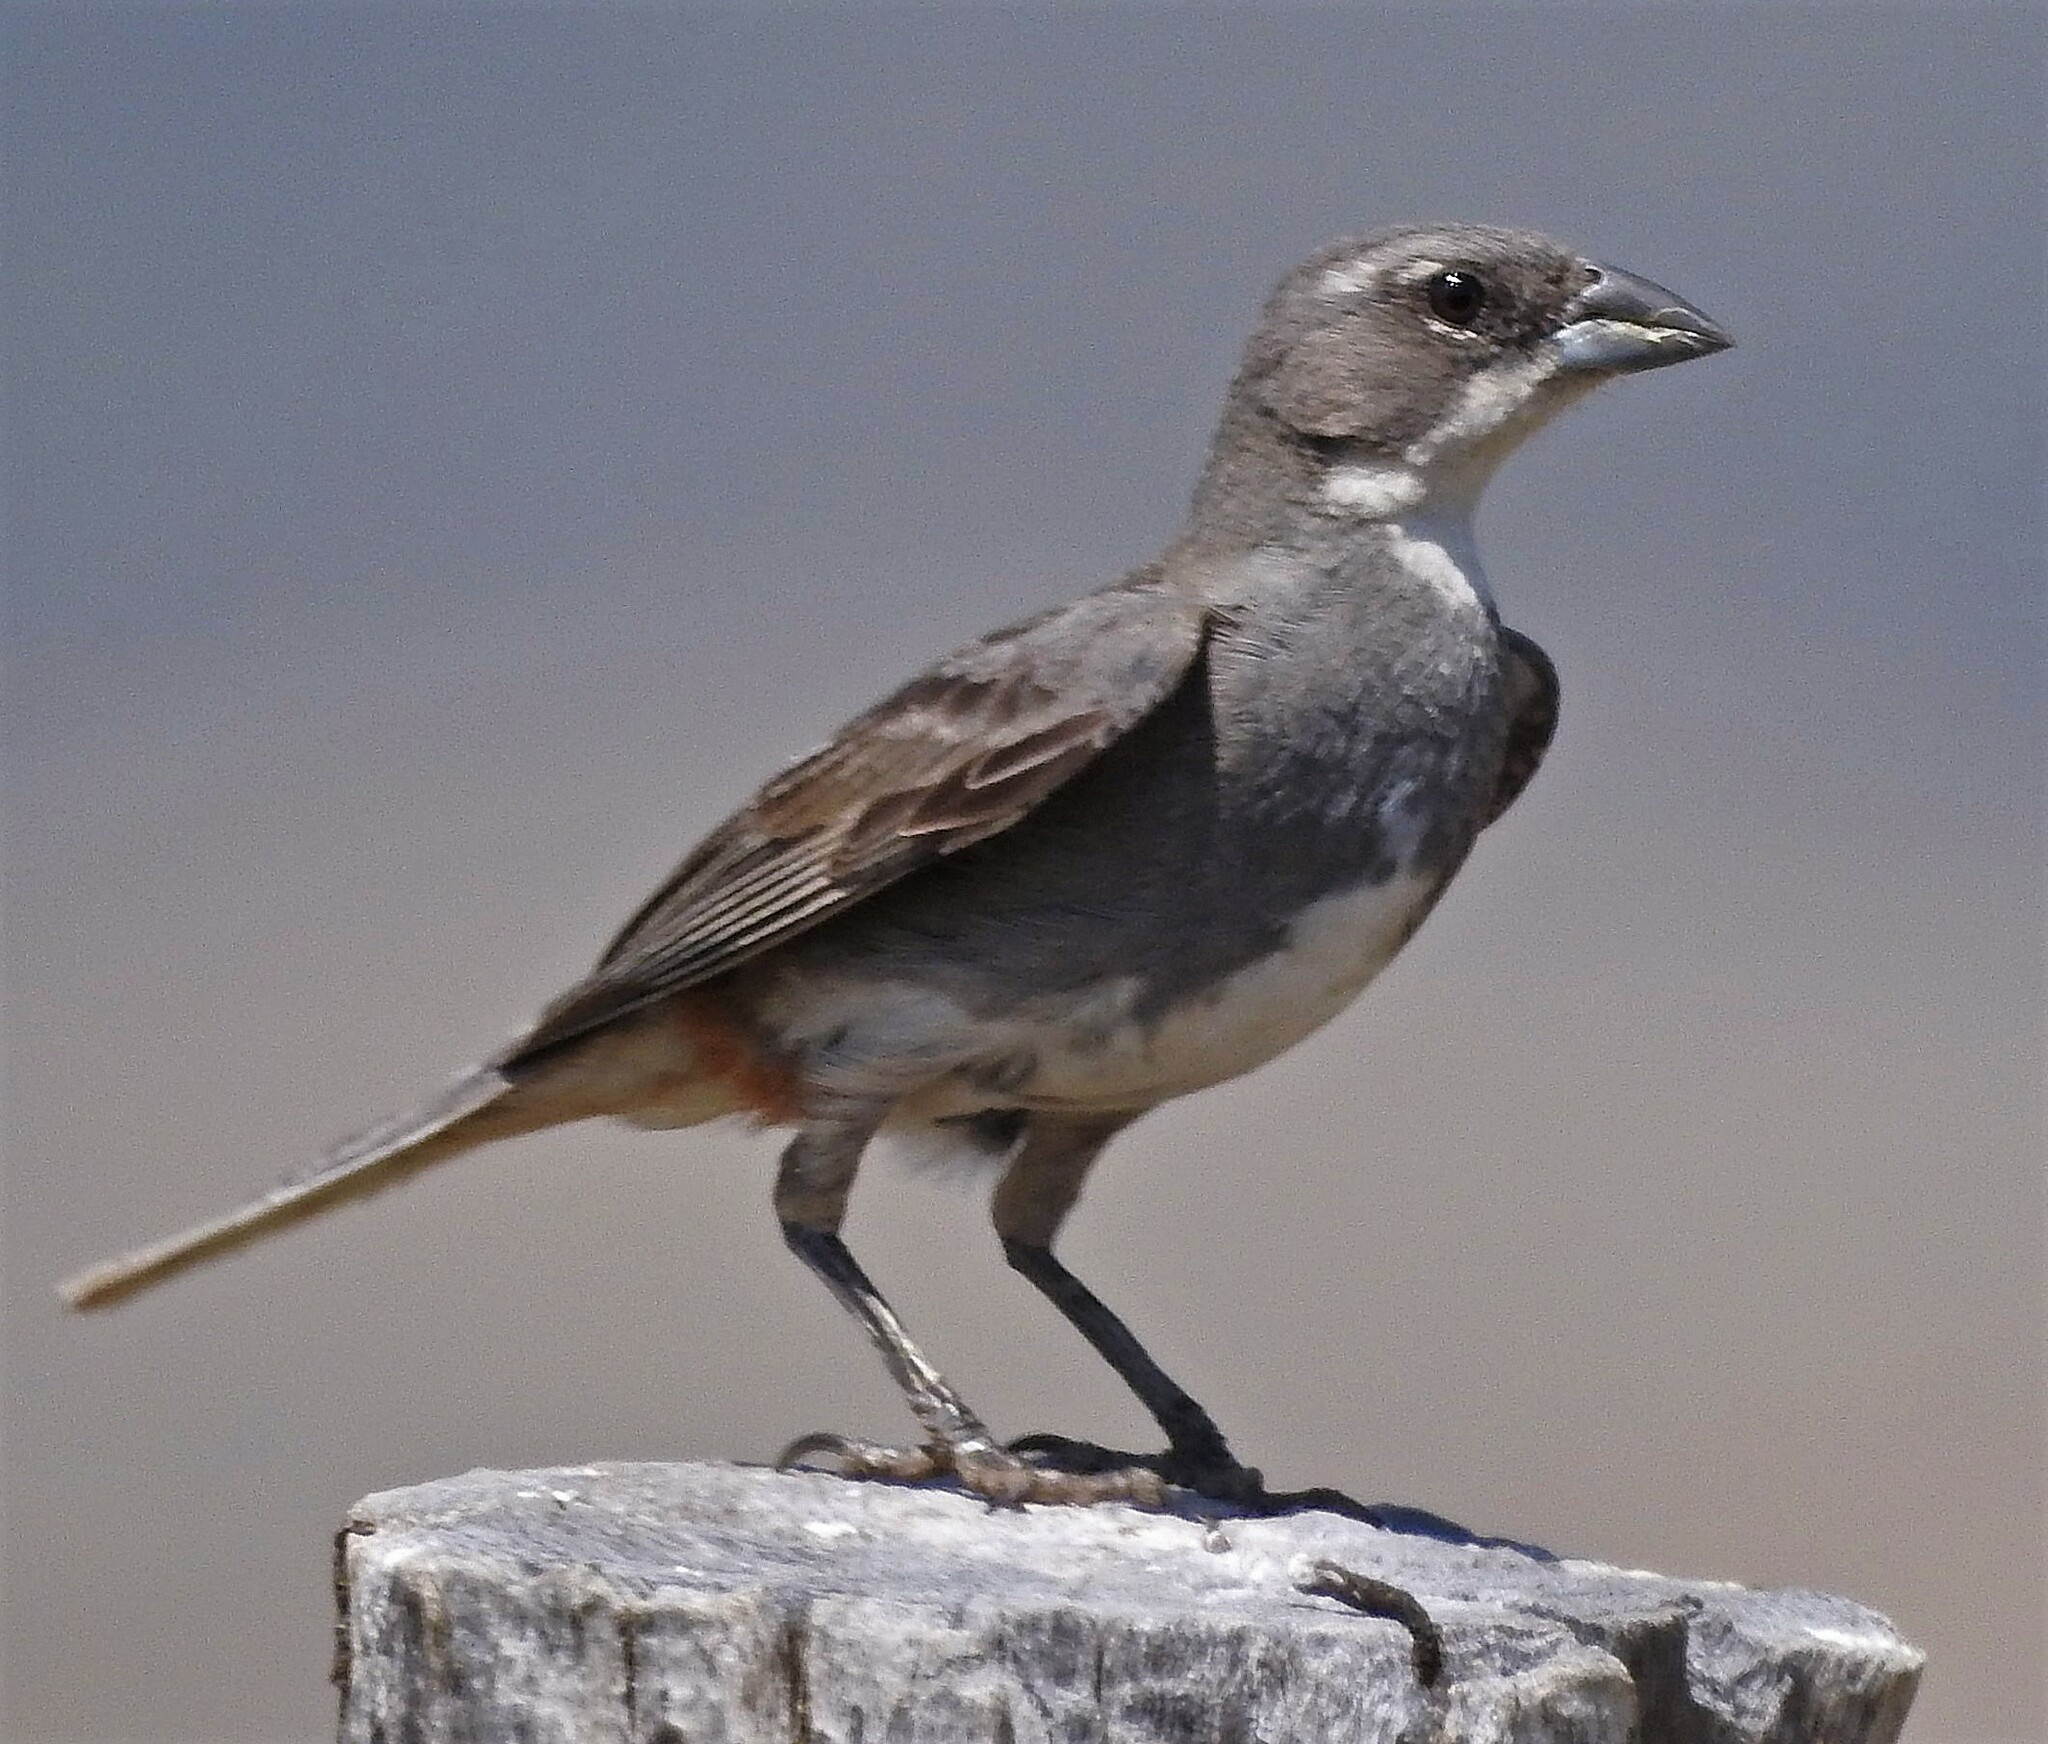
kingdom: Animalia
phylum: Chordata
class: Aves
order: Passeriformes
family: Thraupidae
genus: Diuca
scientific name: Diuca diuca
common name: Common diuca finch
